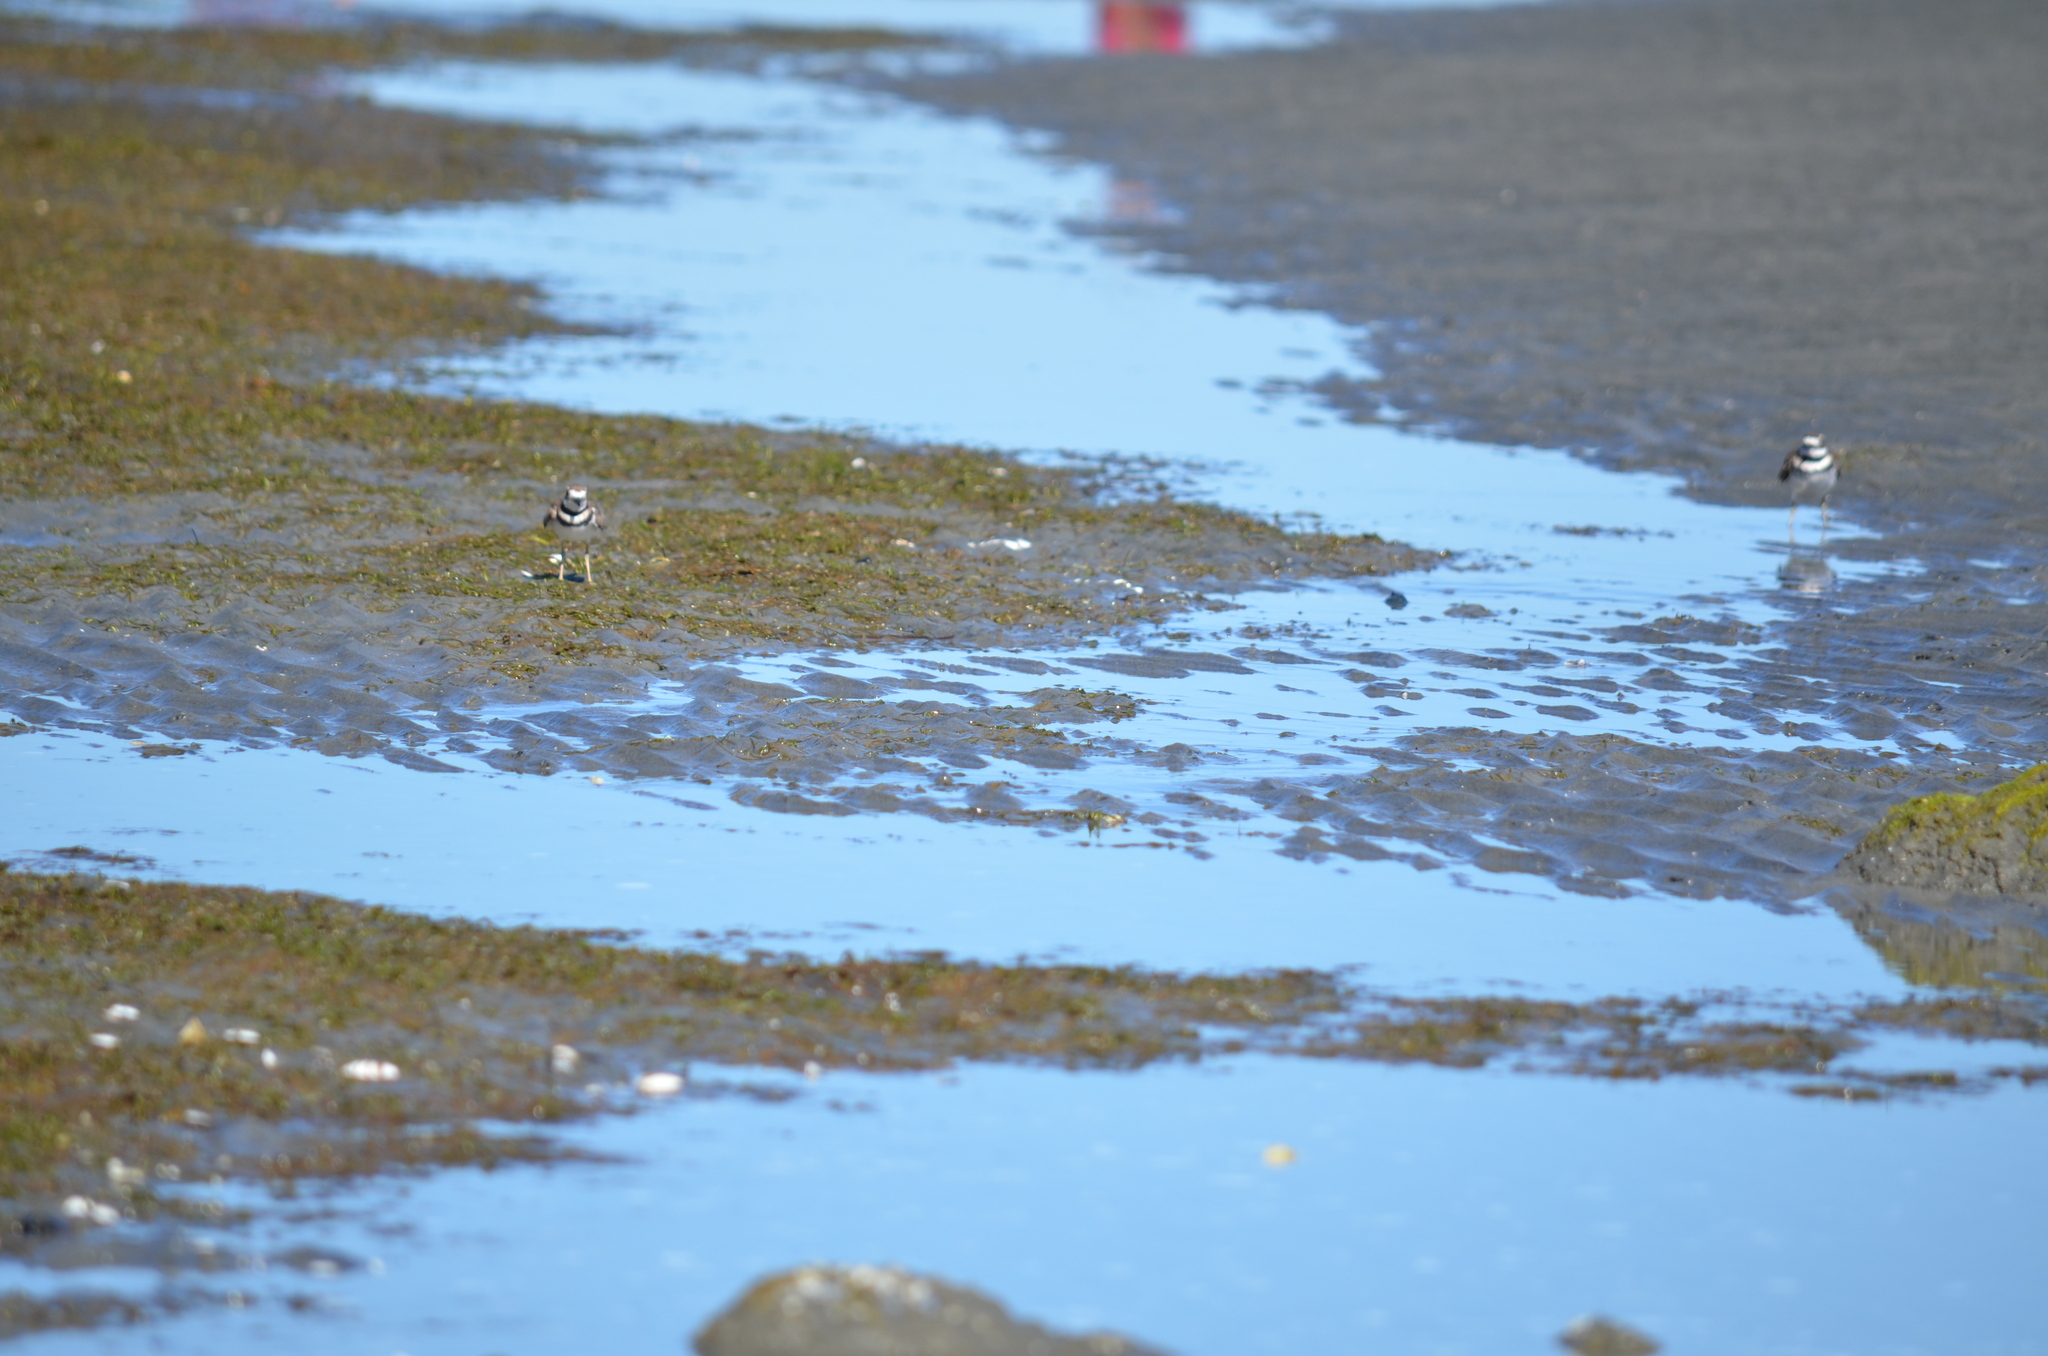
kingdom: Animalia
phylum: Chordata
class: Aves
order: Charadriiformes
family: Charadriidae
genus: Charadrius
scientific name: Charadrius vociferus
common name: Killdeer
